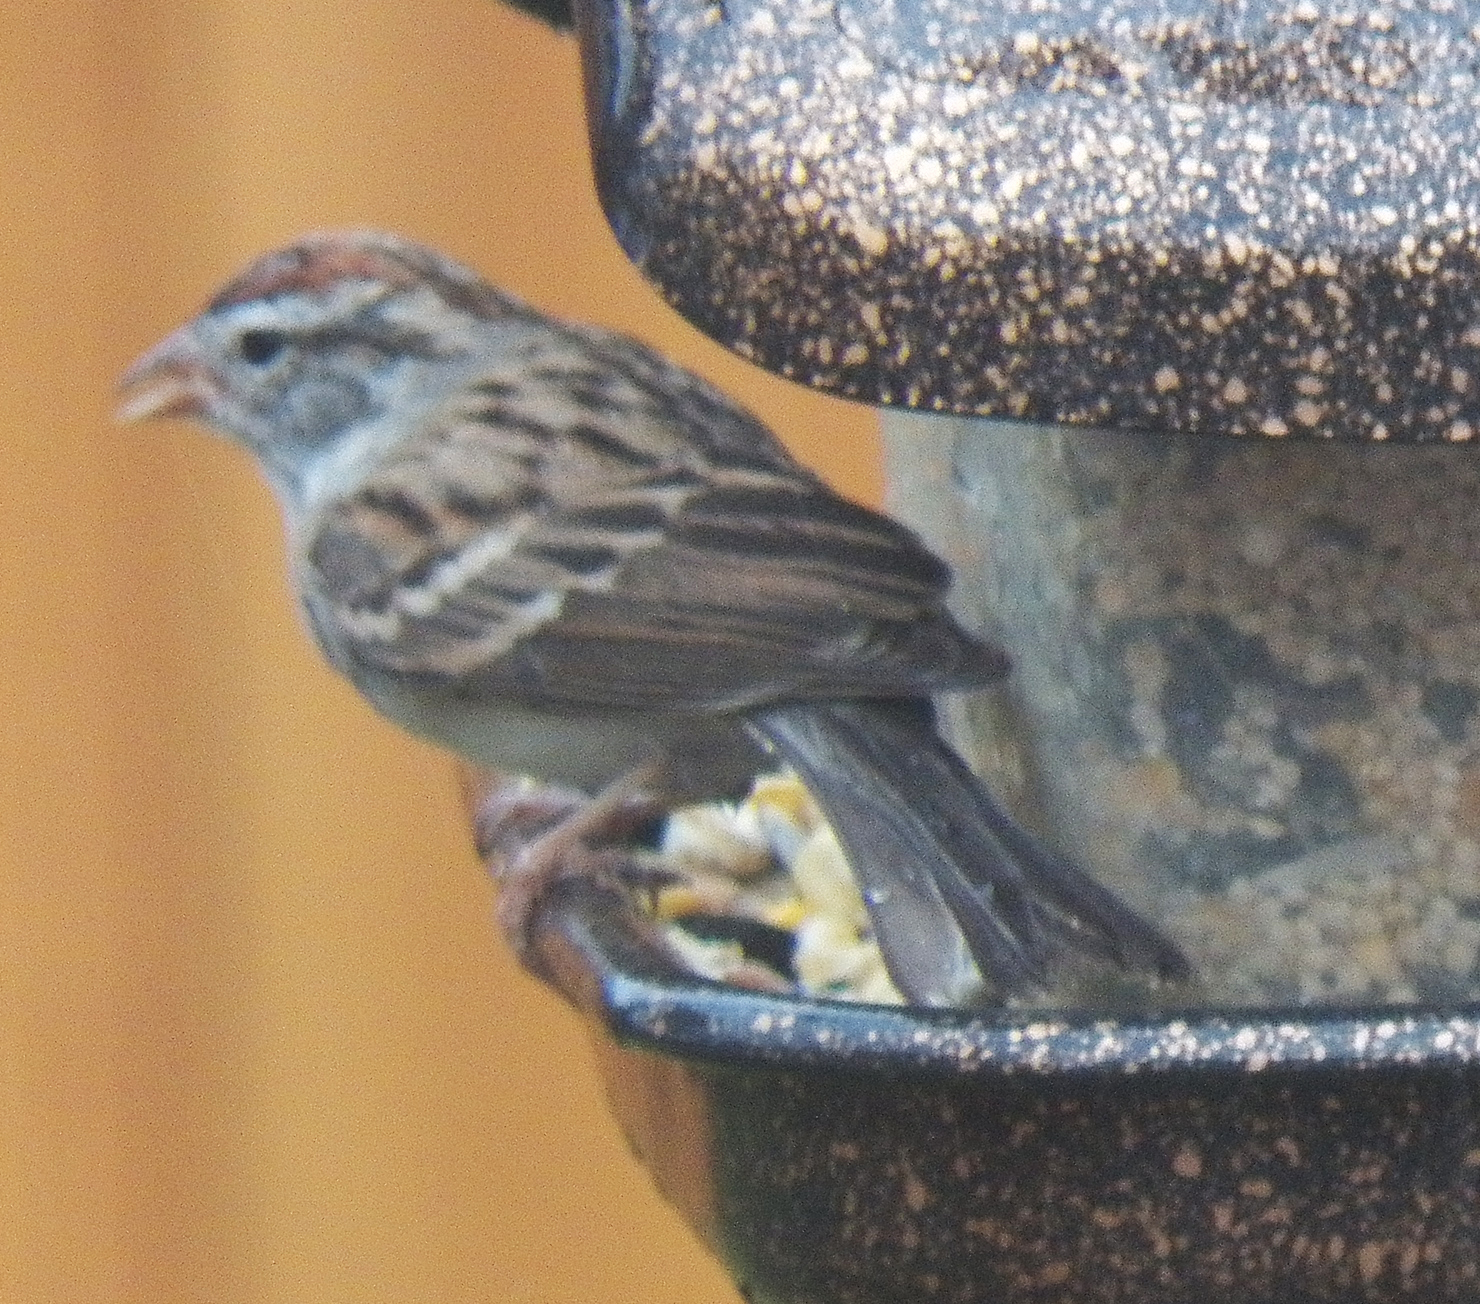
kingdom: Animalia
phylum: Chordata
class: Aves
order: Passeriformes
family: Passerellidae
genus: Spizella
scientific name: Spizella passerina
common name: Chipping sparrow
